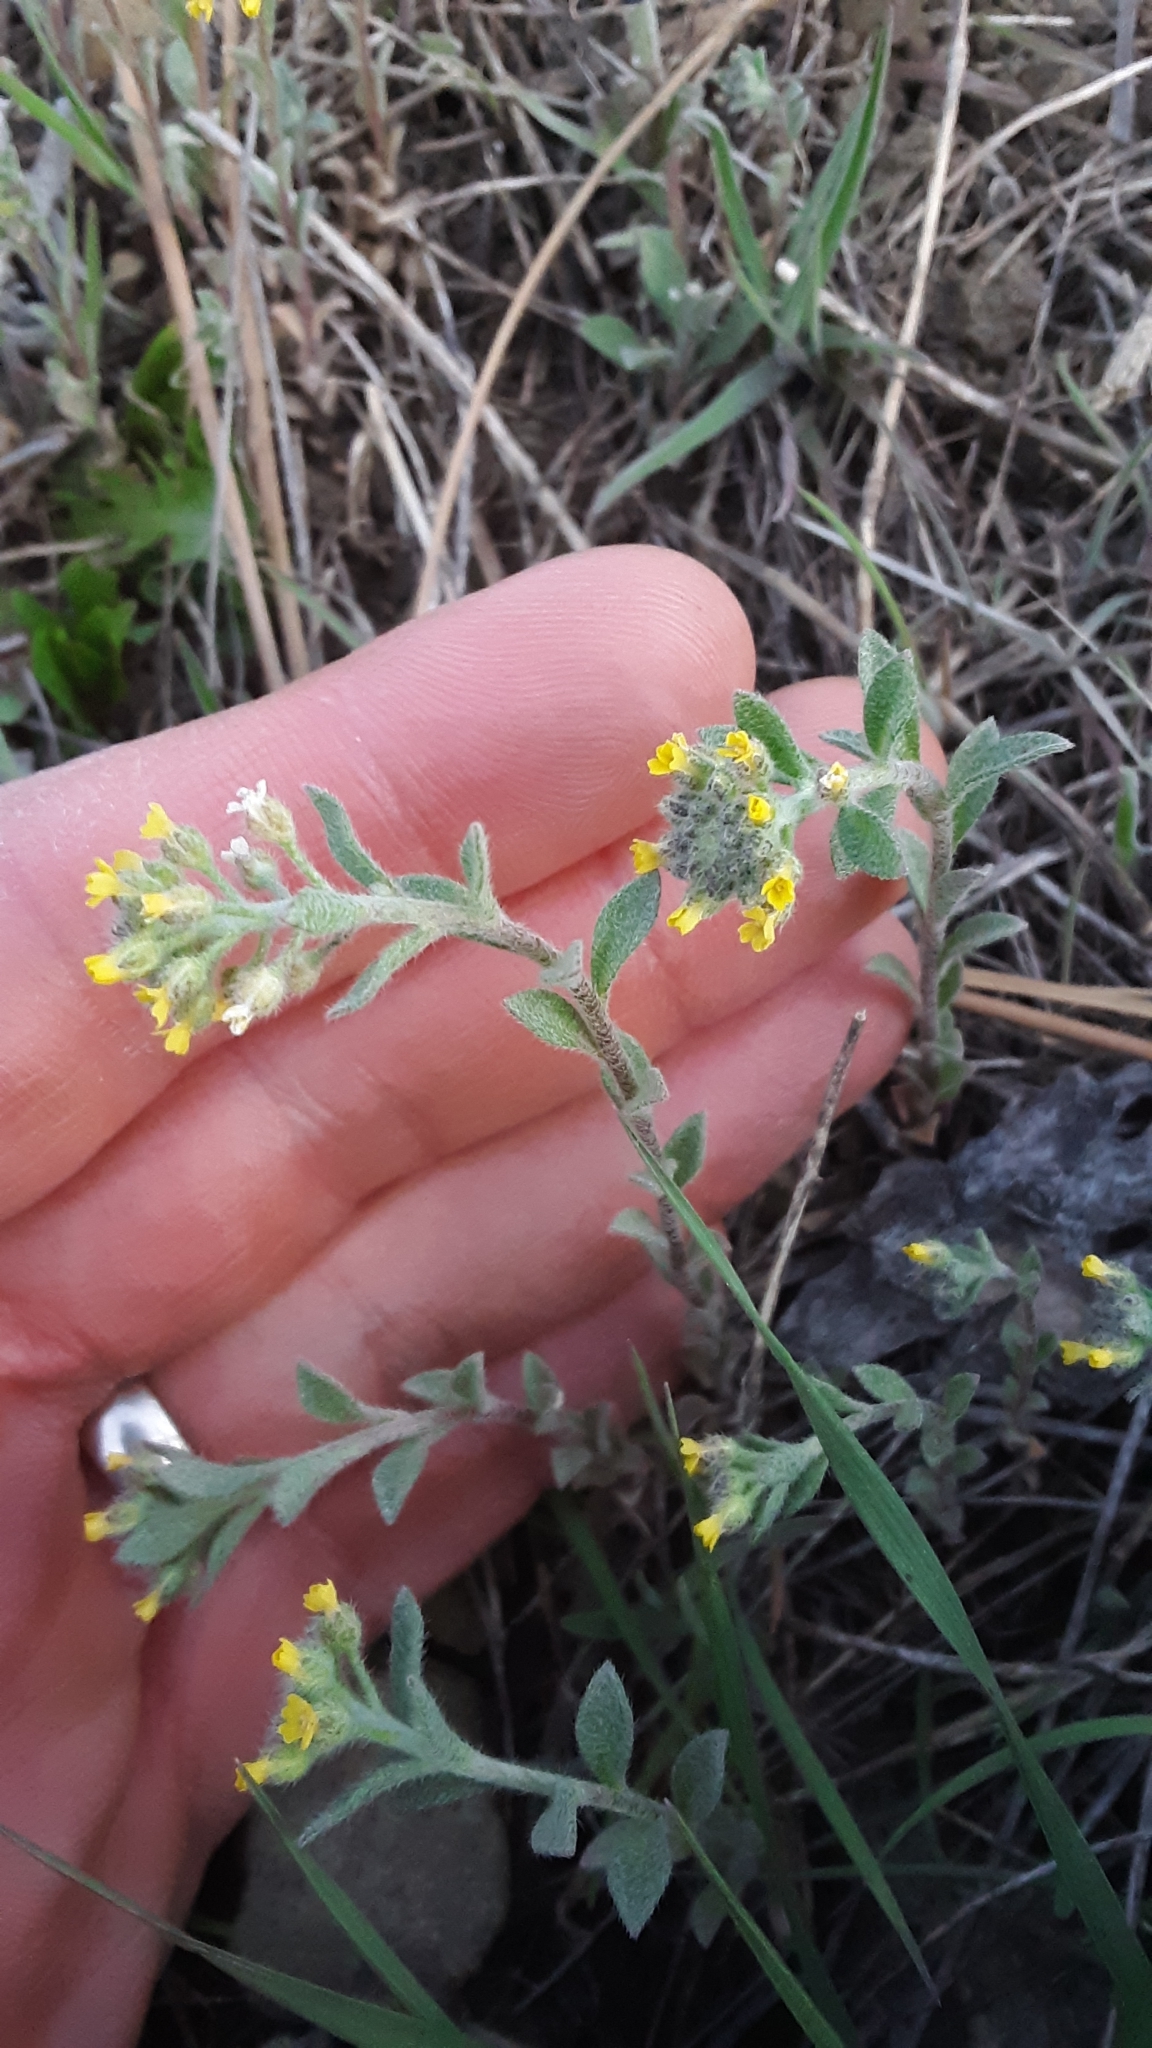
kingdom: Plantae
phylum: Tracheophyta
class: Magnoliopsida
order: Brassicales
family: Brassicaceae
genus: Alyssum
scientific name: Alyssum turkestanicum
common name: Desert alyssum
